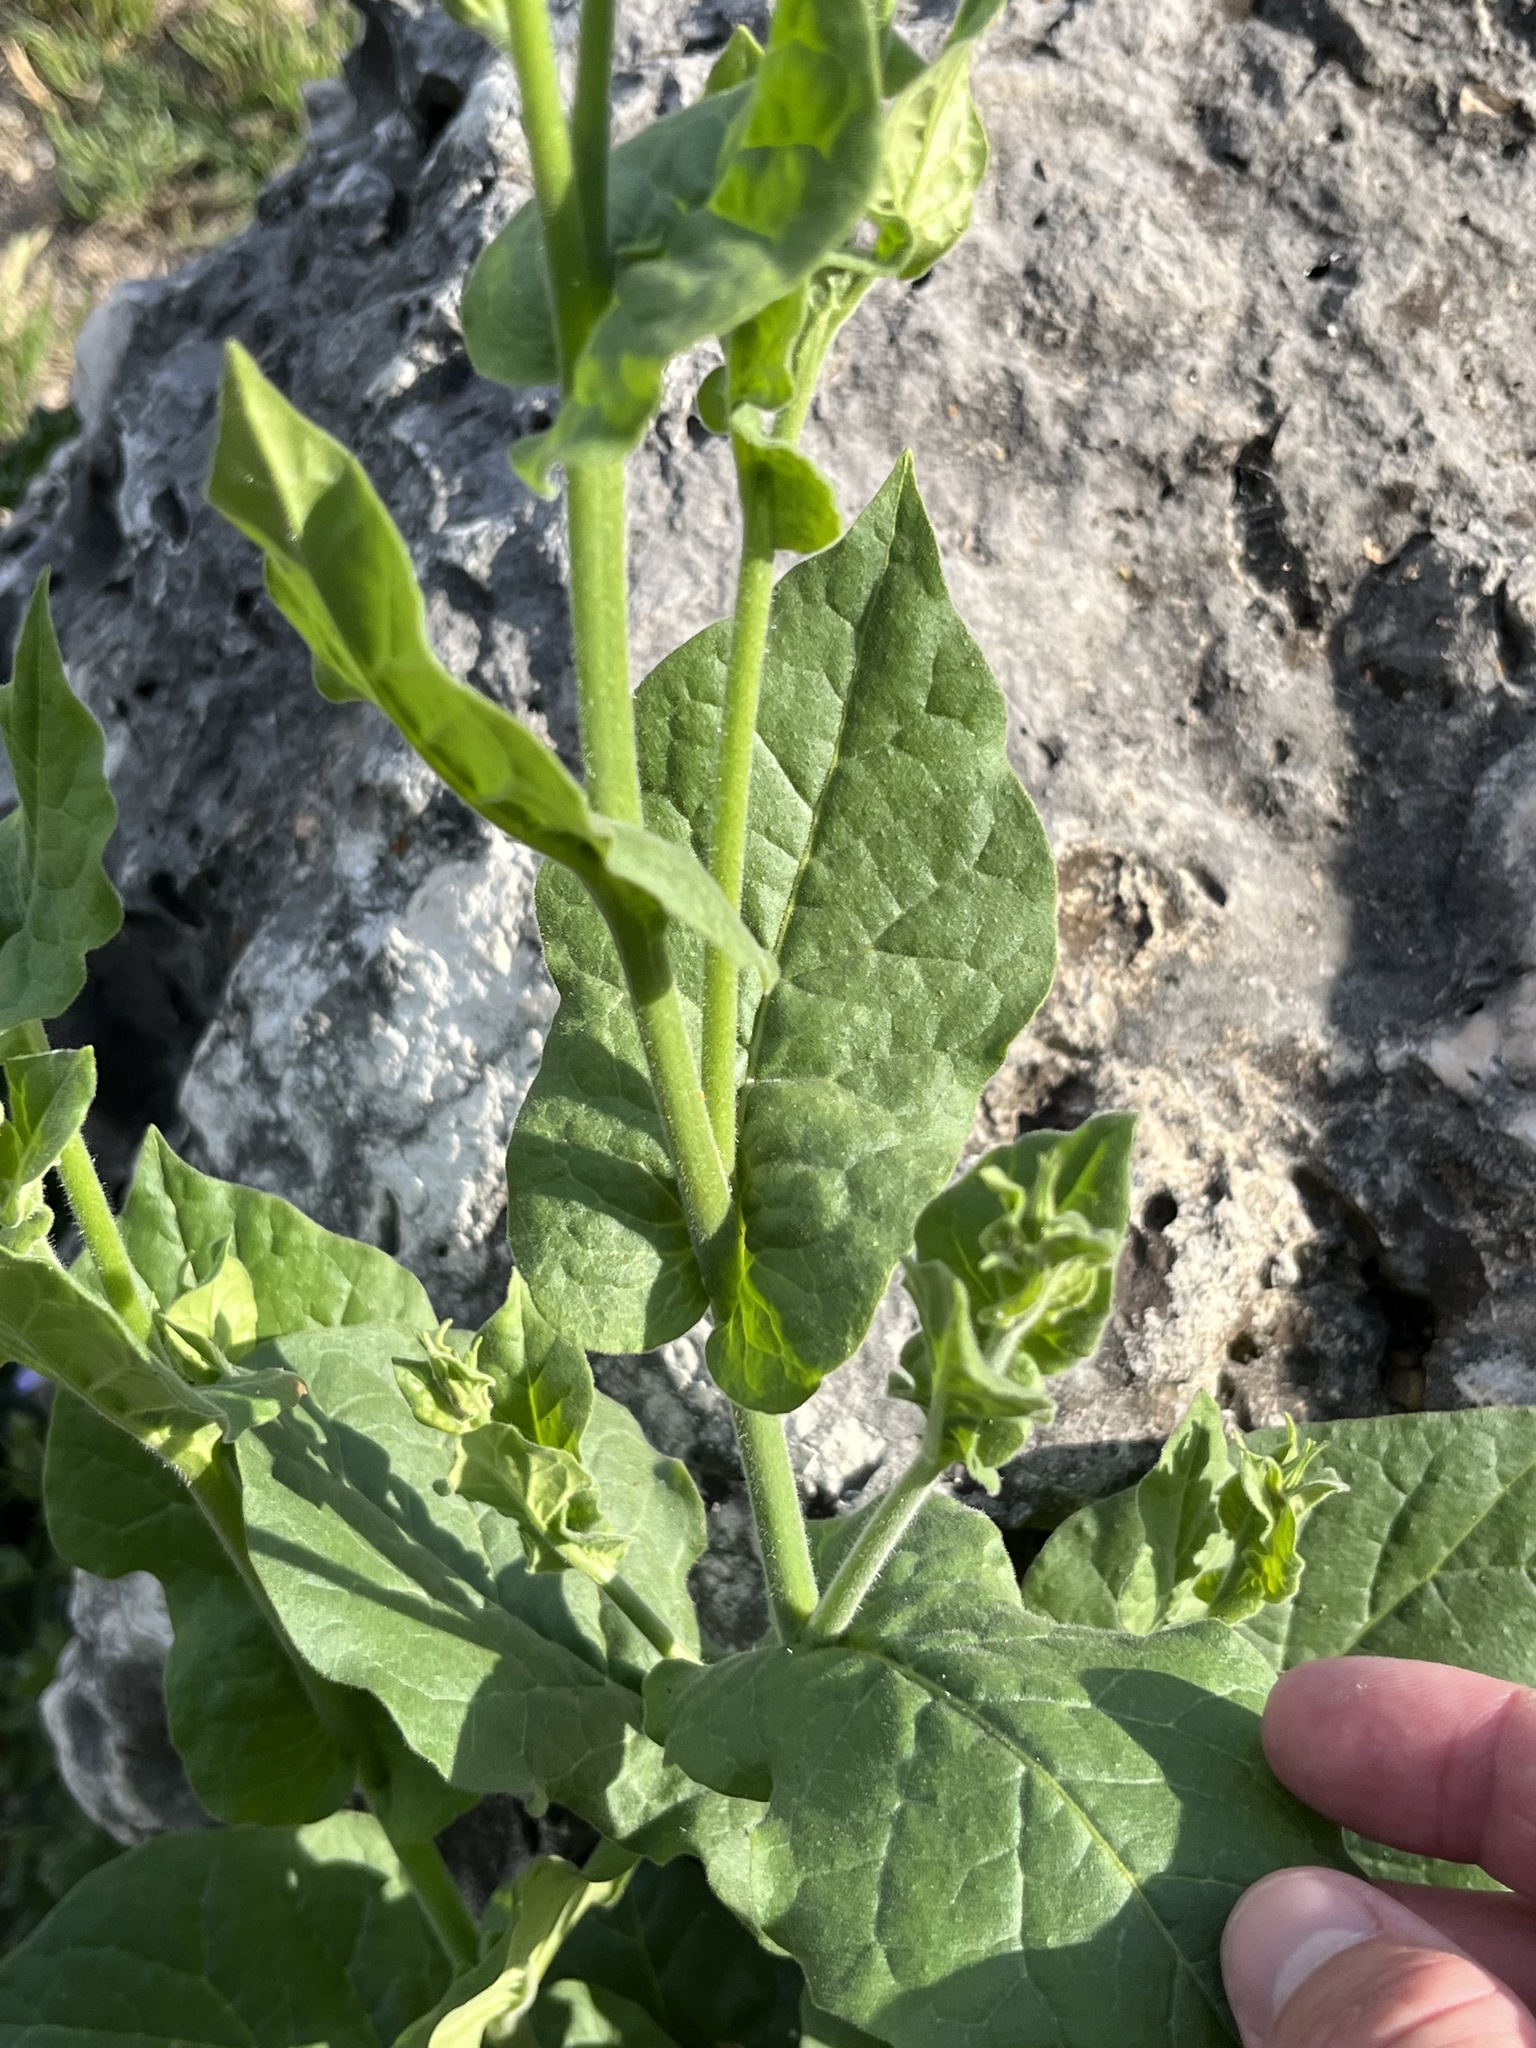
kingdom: Plantae
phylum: Tracheophyta
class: Magnoliopsida
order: Solanales
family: Solanaceae
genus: Nicotiana
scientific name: Nicotiana repanda
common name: Fiddle-leaf tobacco
